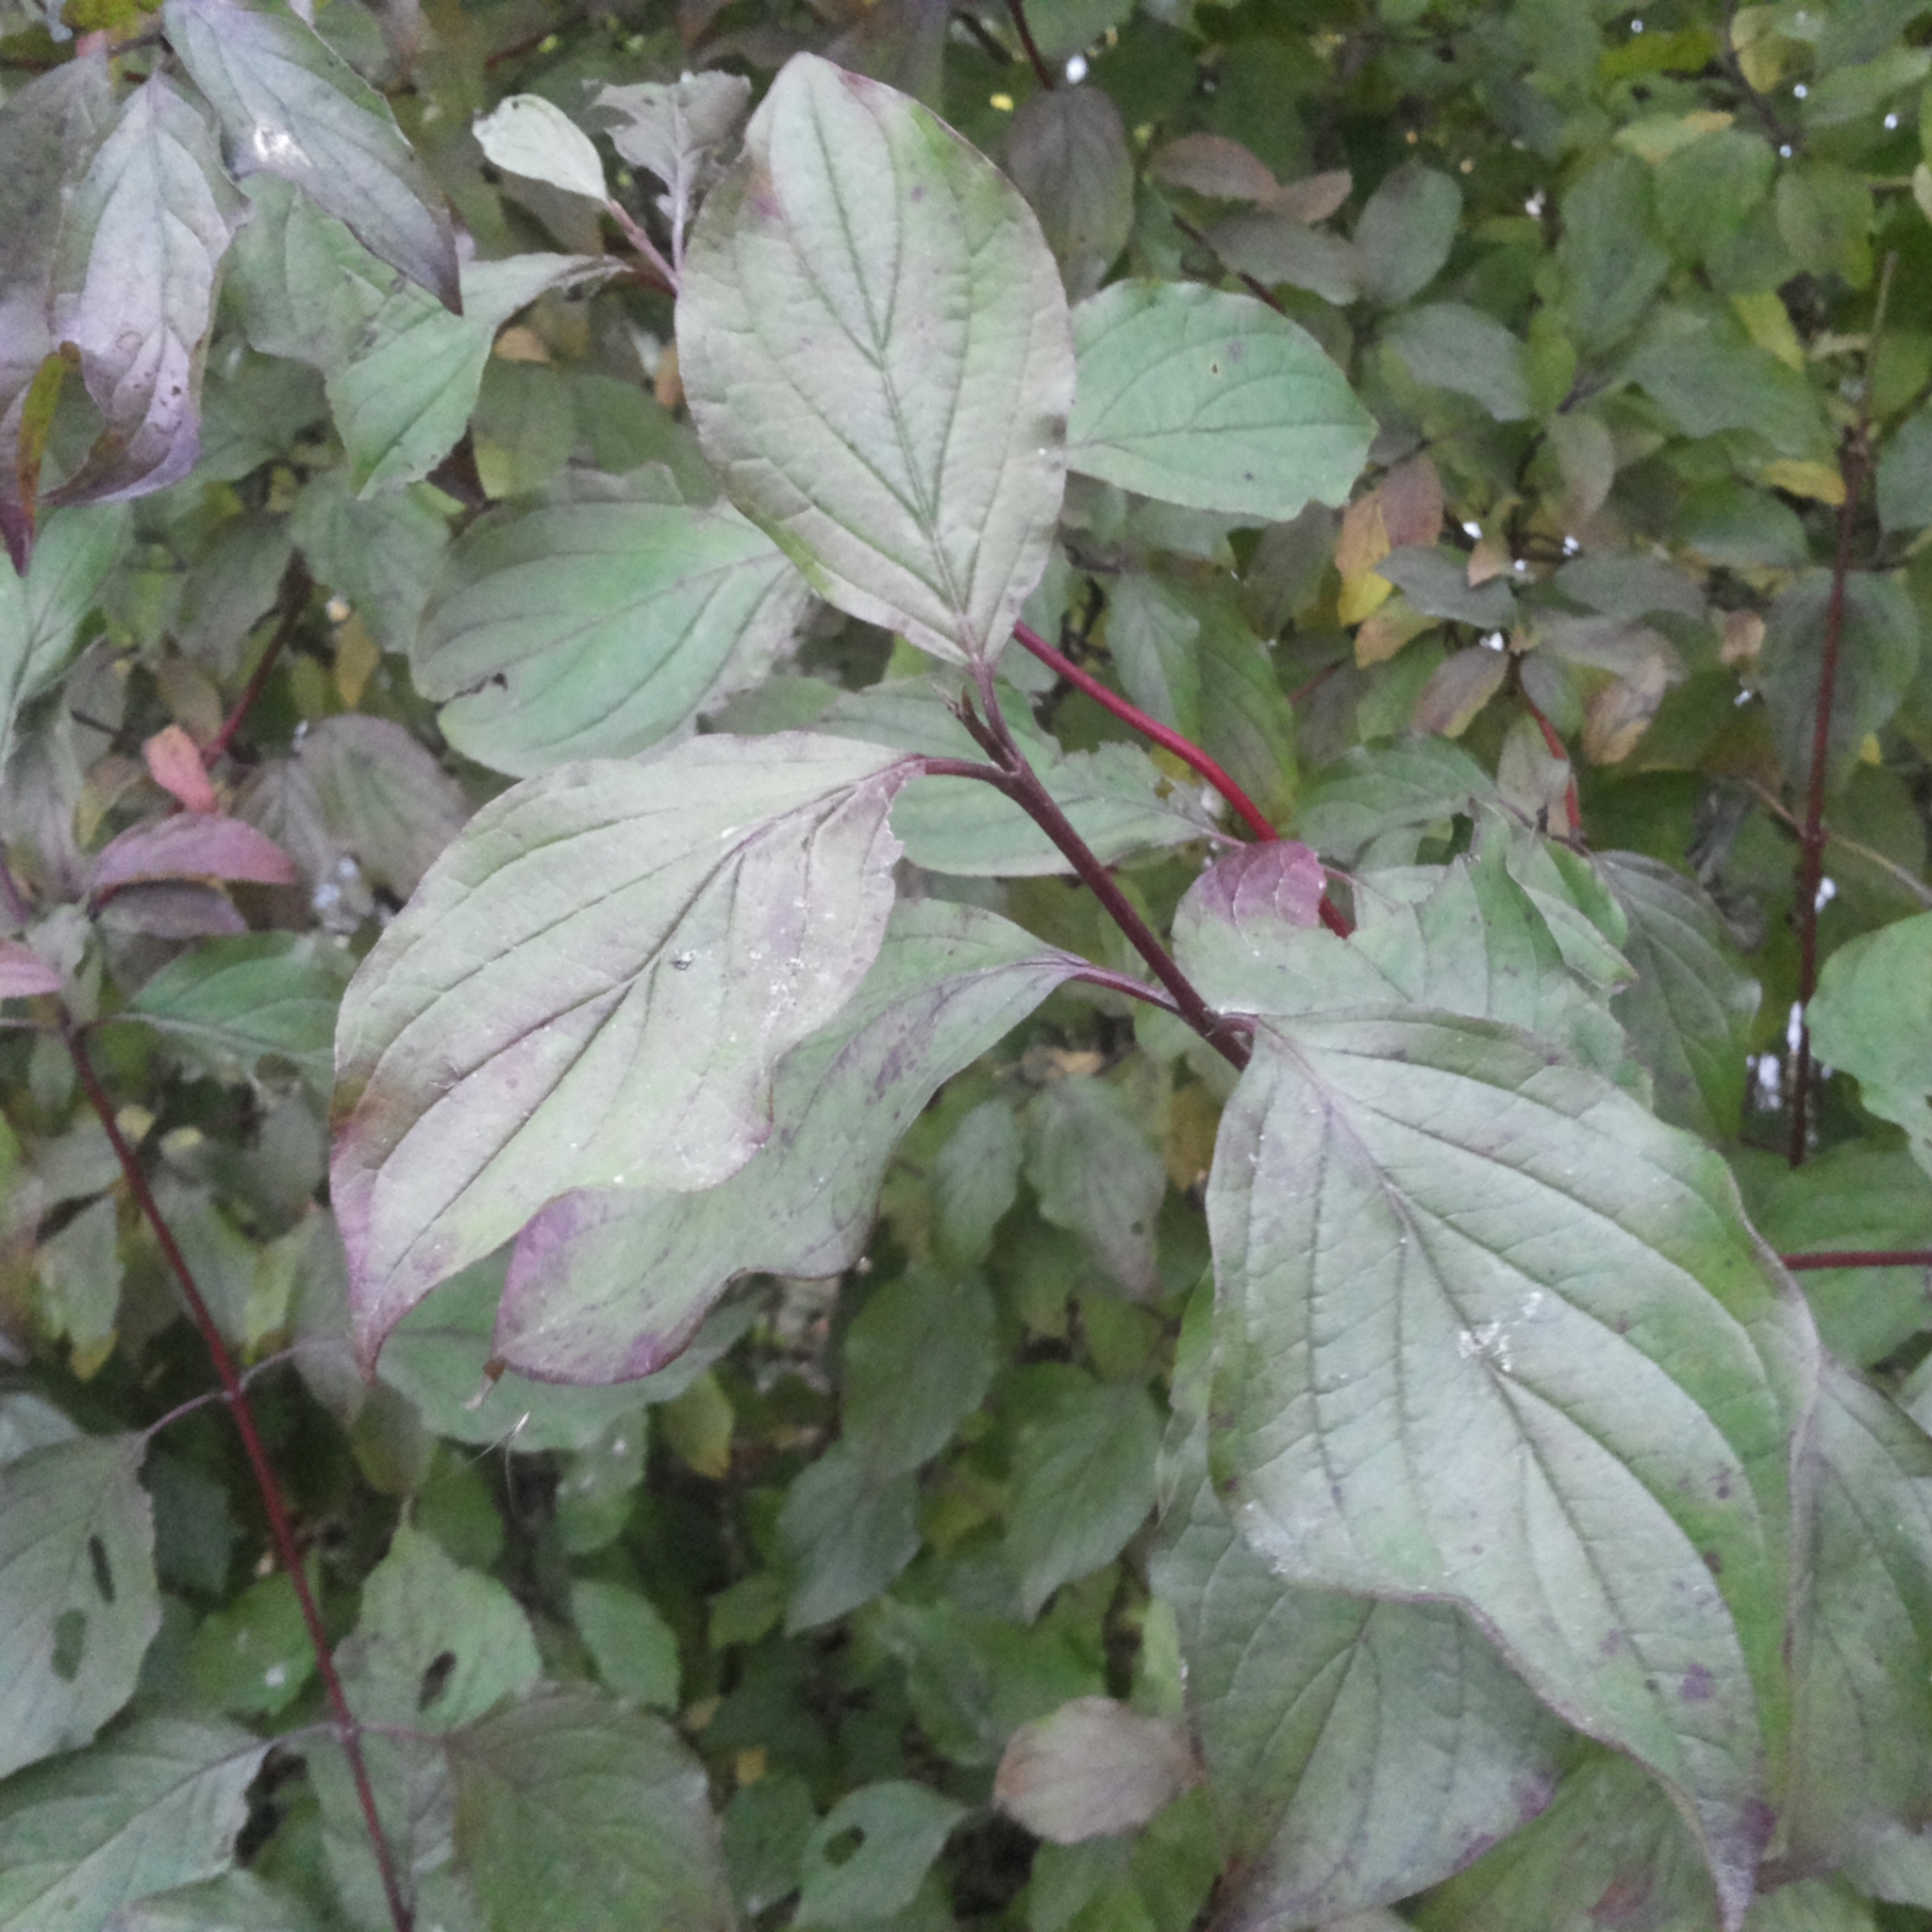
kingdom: Plantae
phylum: Tracheophyta
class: Magnoliopsida
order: Cornales
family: Cornaceae
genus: Cornus
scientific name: Cornus sanguinea
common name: Dogwood
